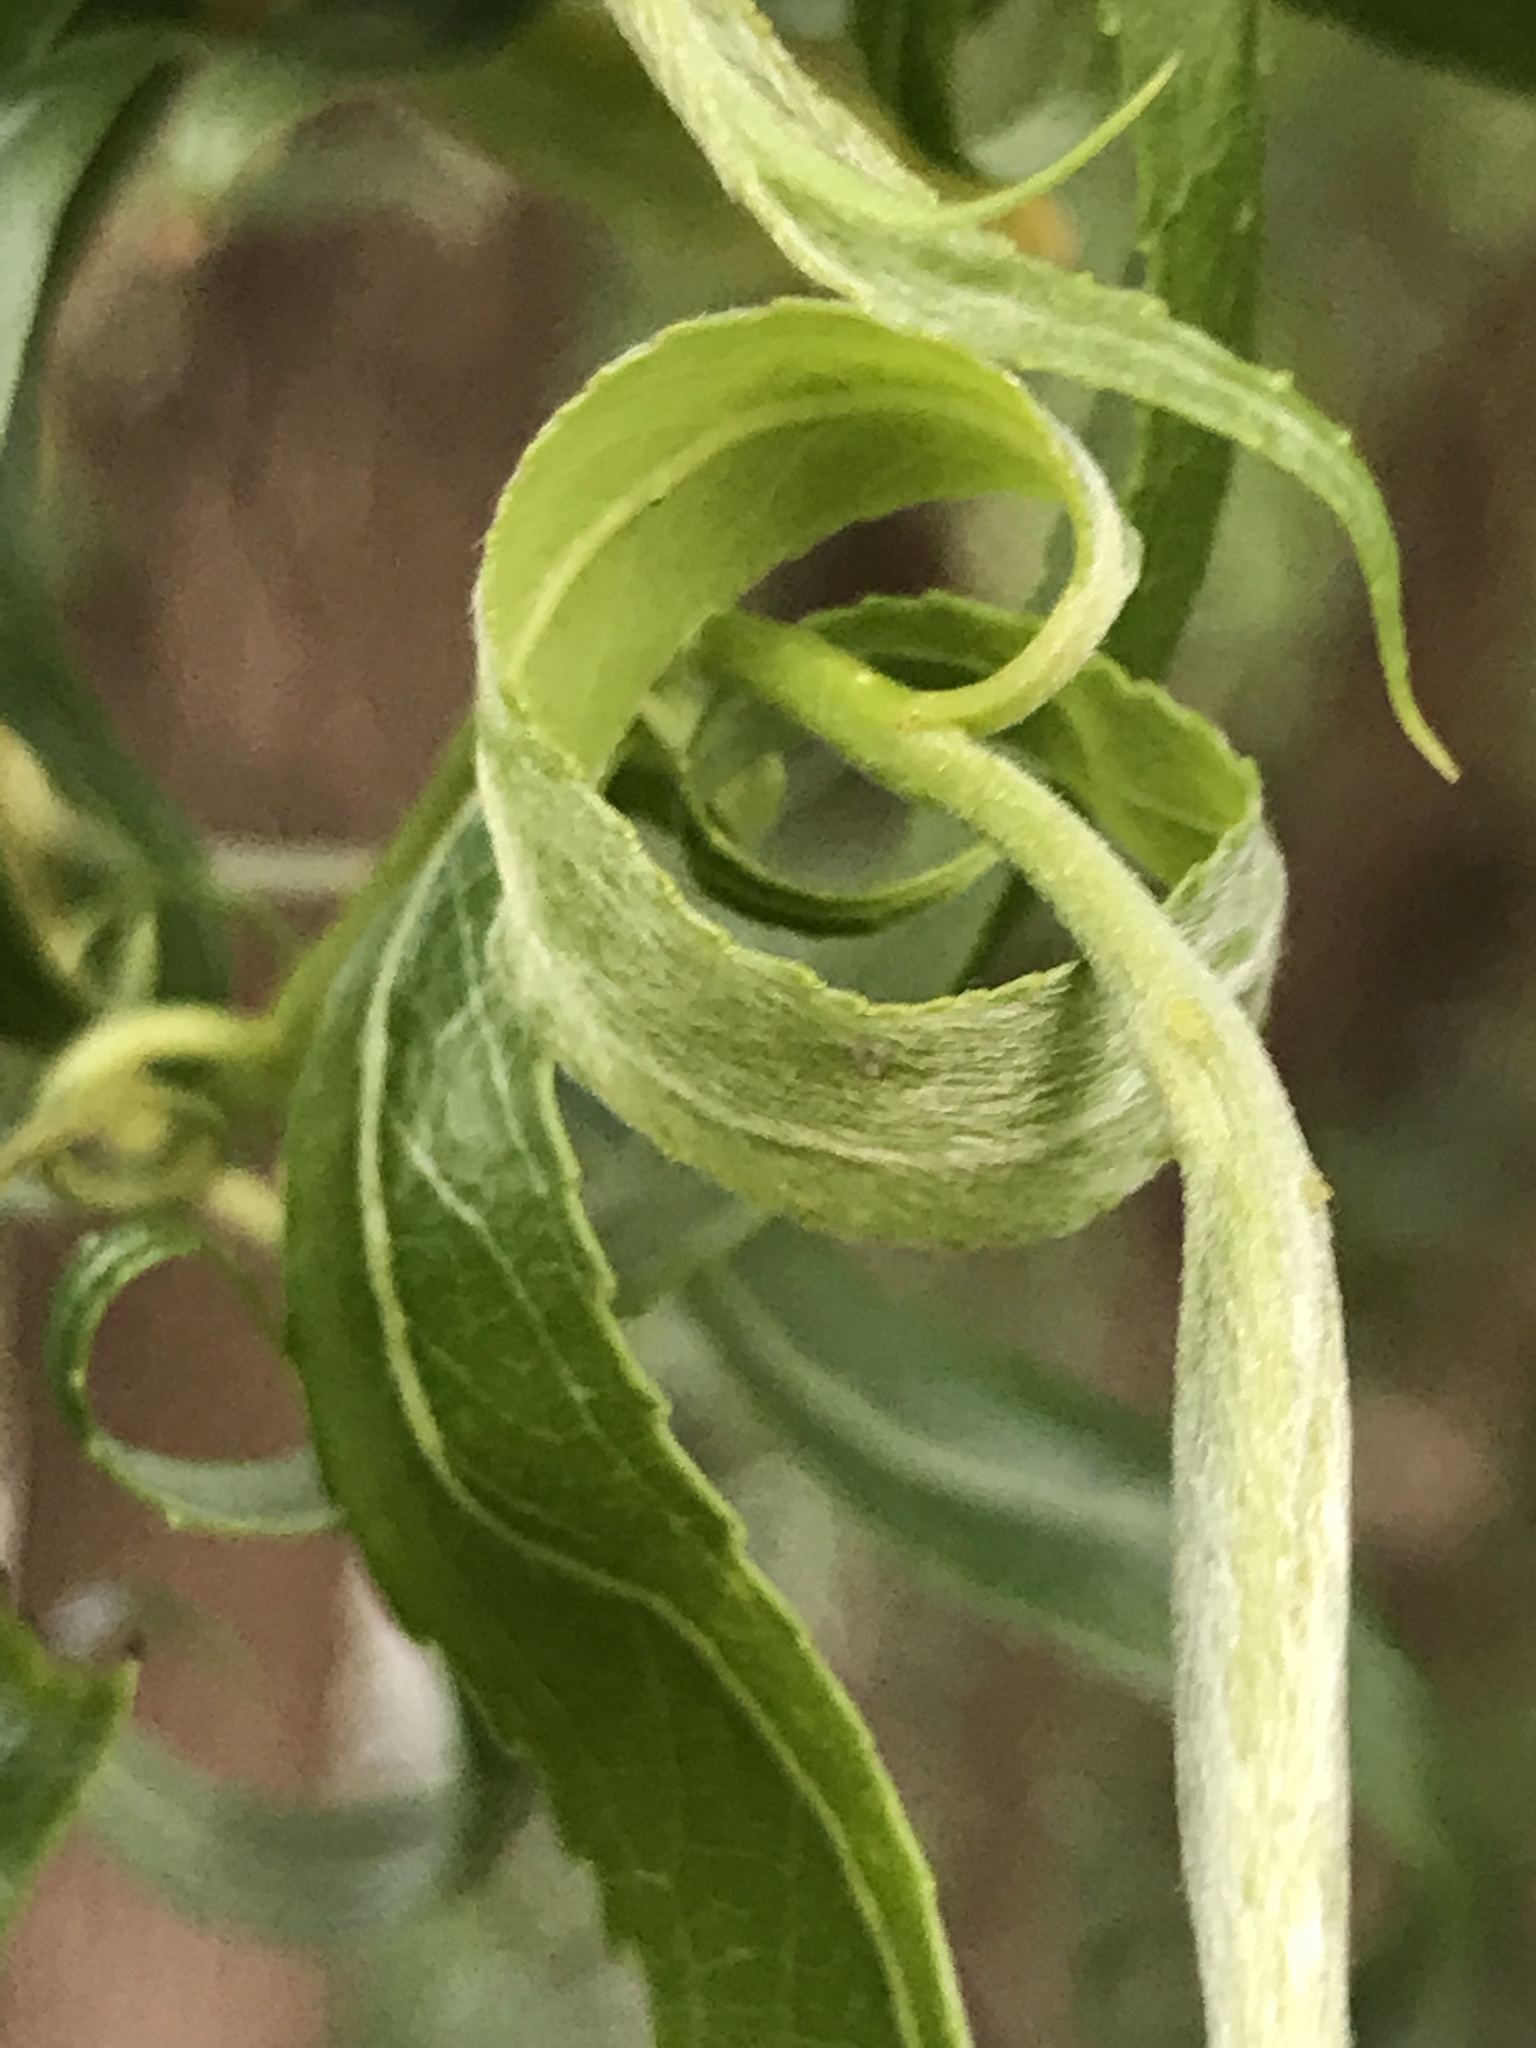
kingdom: Plantae
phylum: Tracheophyta
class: Magnoliopsida
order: Malpighiales
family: Salicaceae
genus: Salix
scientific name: Salix
